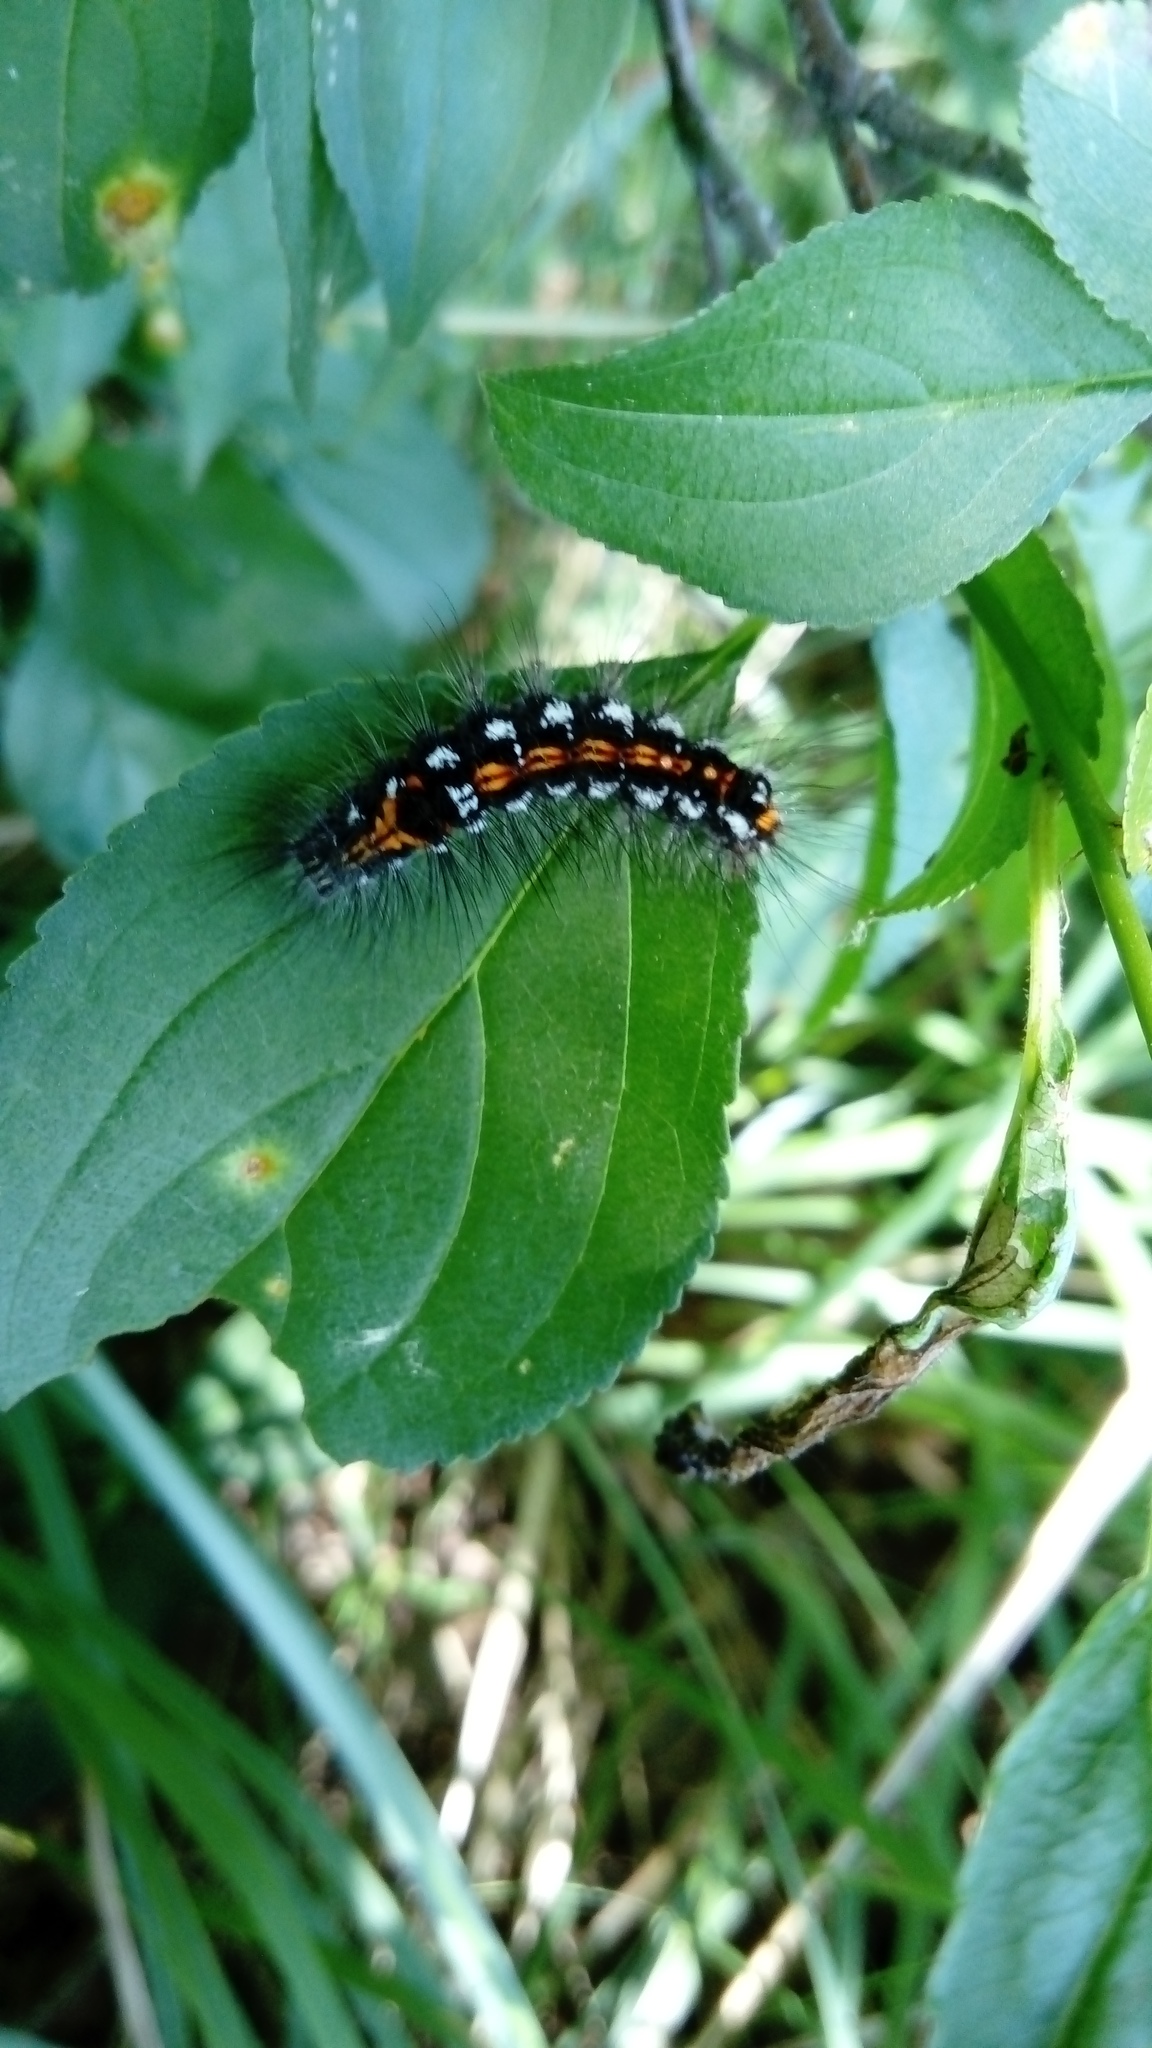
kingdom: Animalia
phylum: Arthropoda
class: Insecta
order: Lepidoptera
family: Erebidae
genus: Sphrageidus
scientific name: Sphrageidus similis
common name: Yellow-tail
